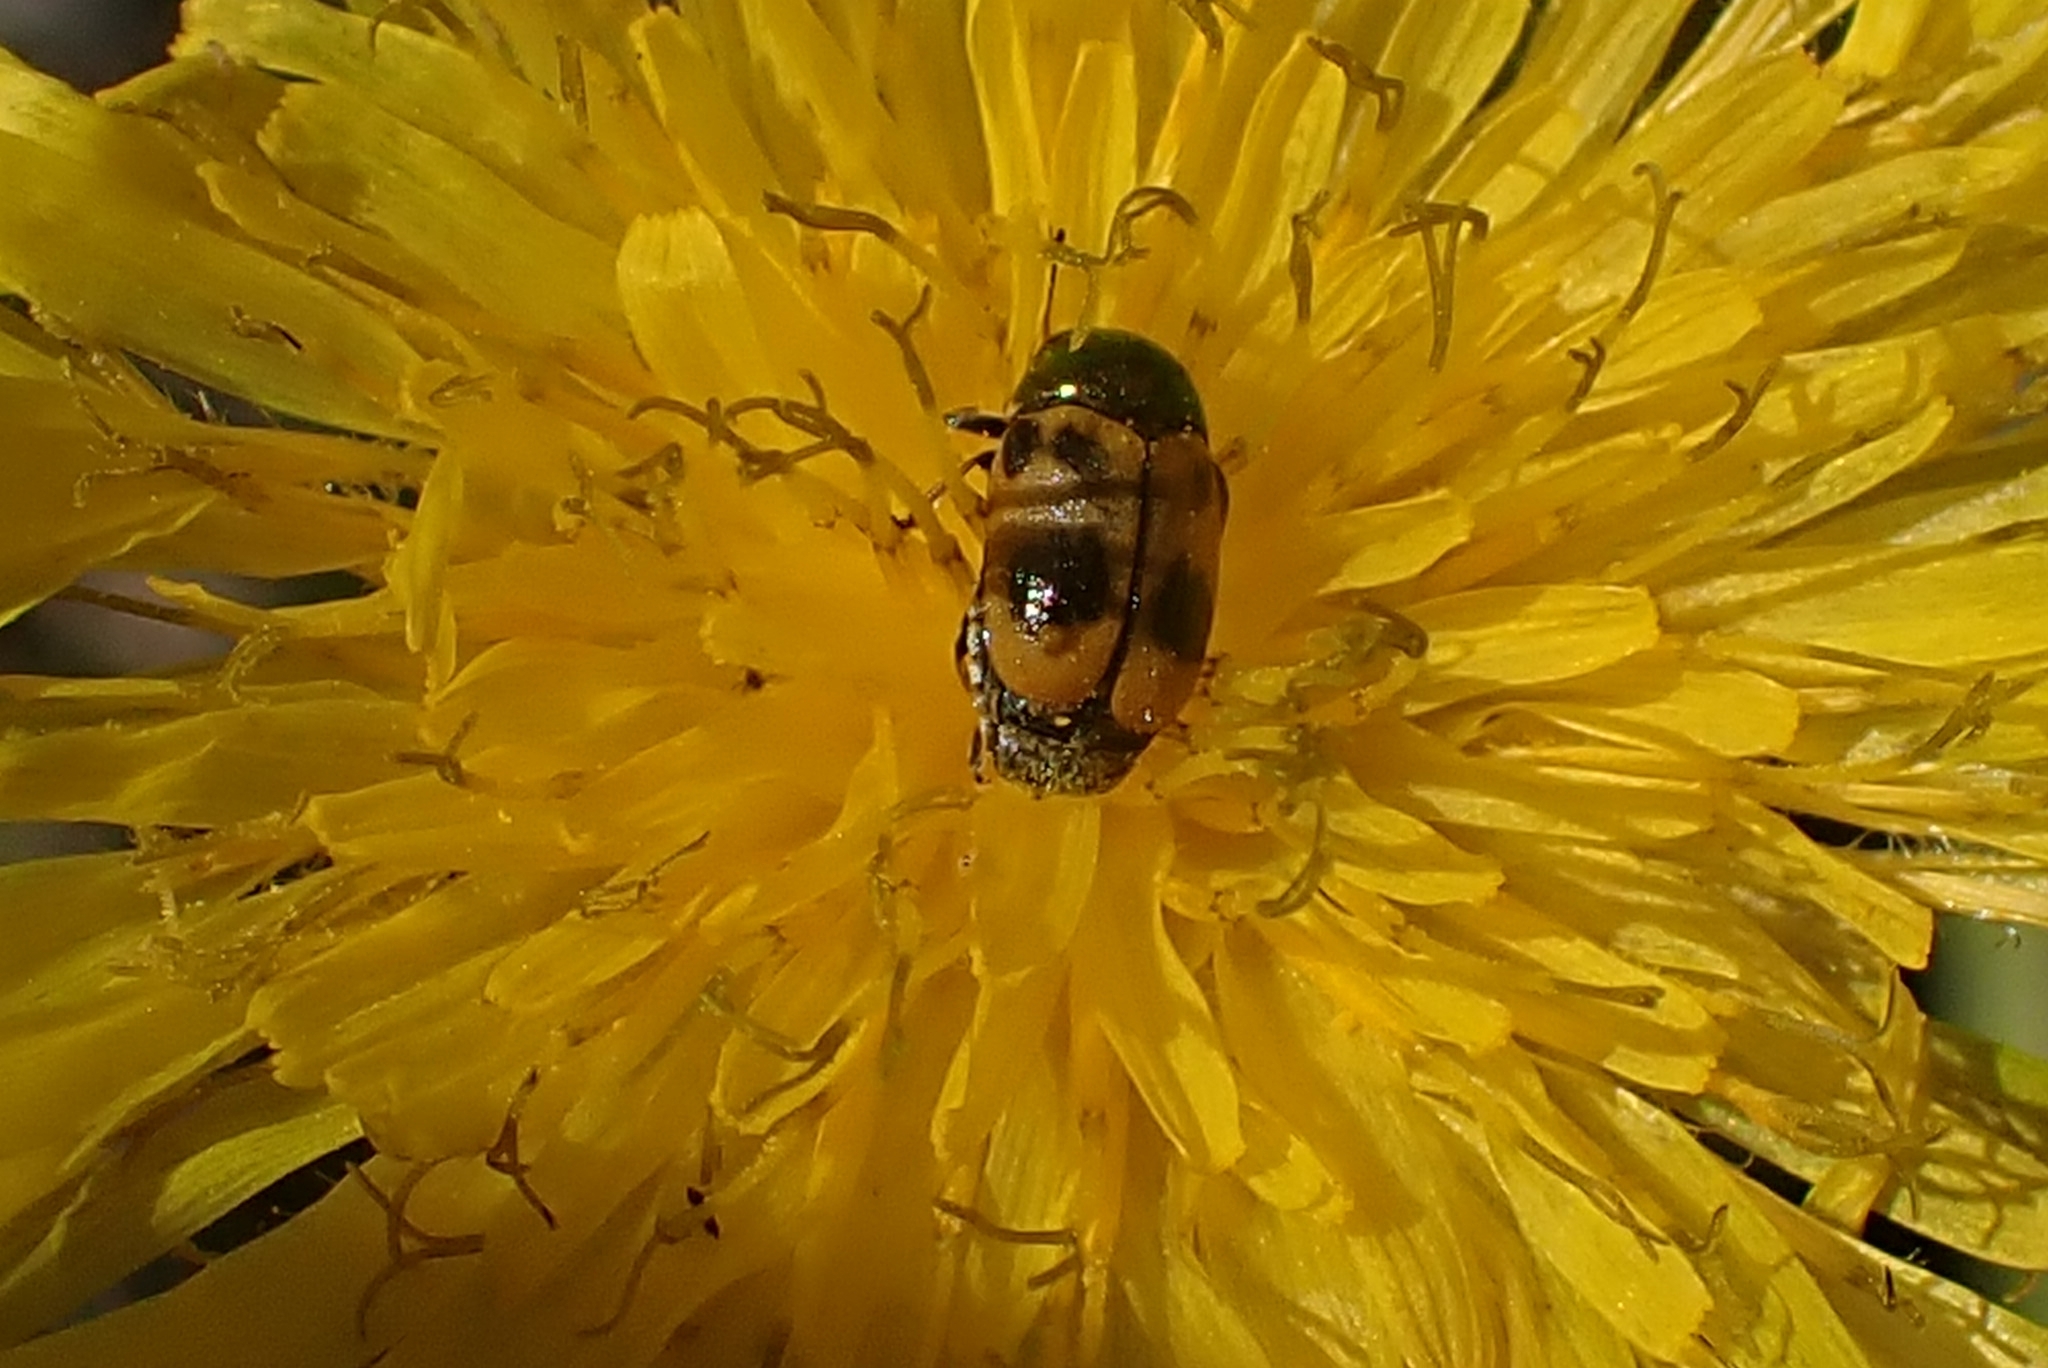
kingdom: Animalia
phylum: Arthropoda
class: Insecta
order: Coleoptera
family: Chrysomelidae
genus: Cryptocephalus
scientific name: Cryptocephalus laetus
